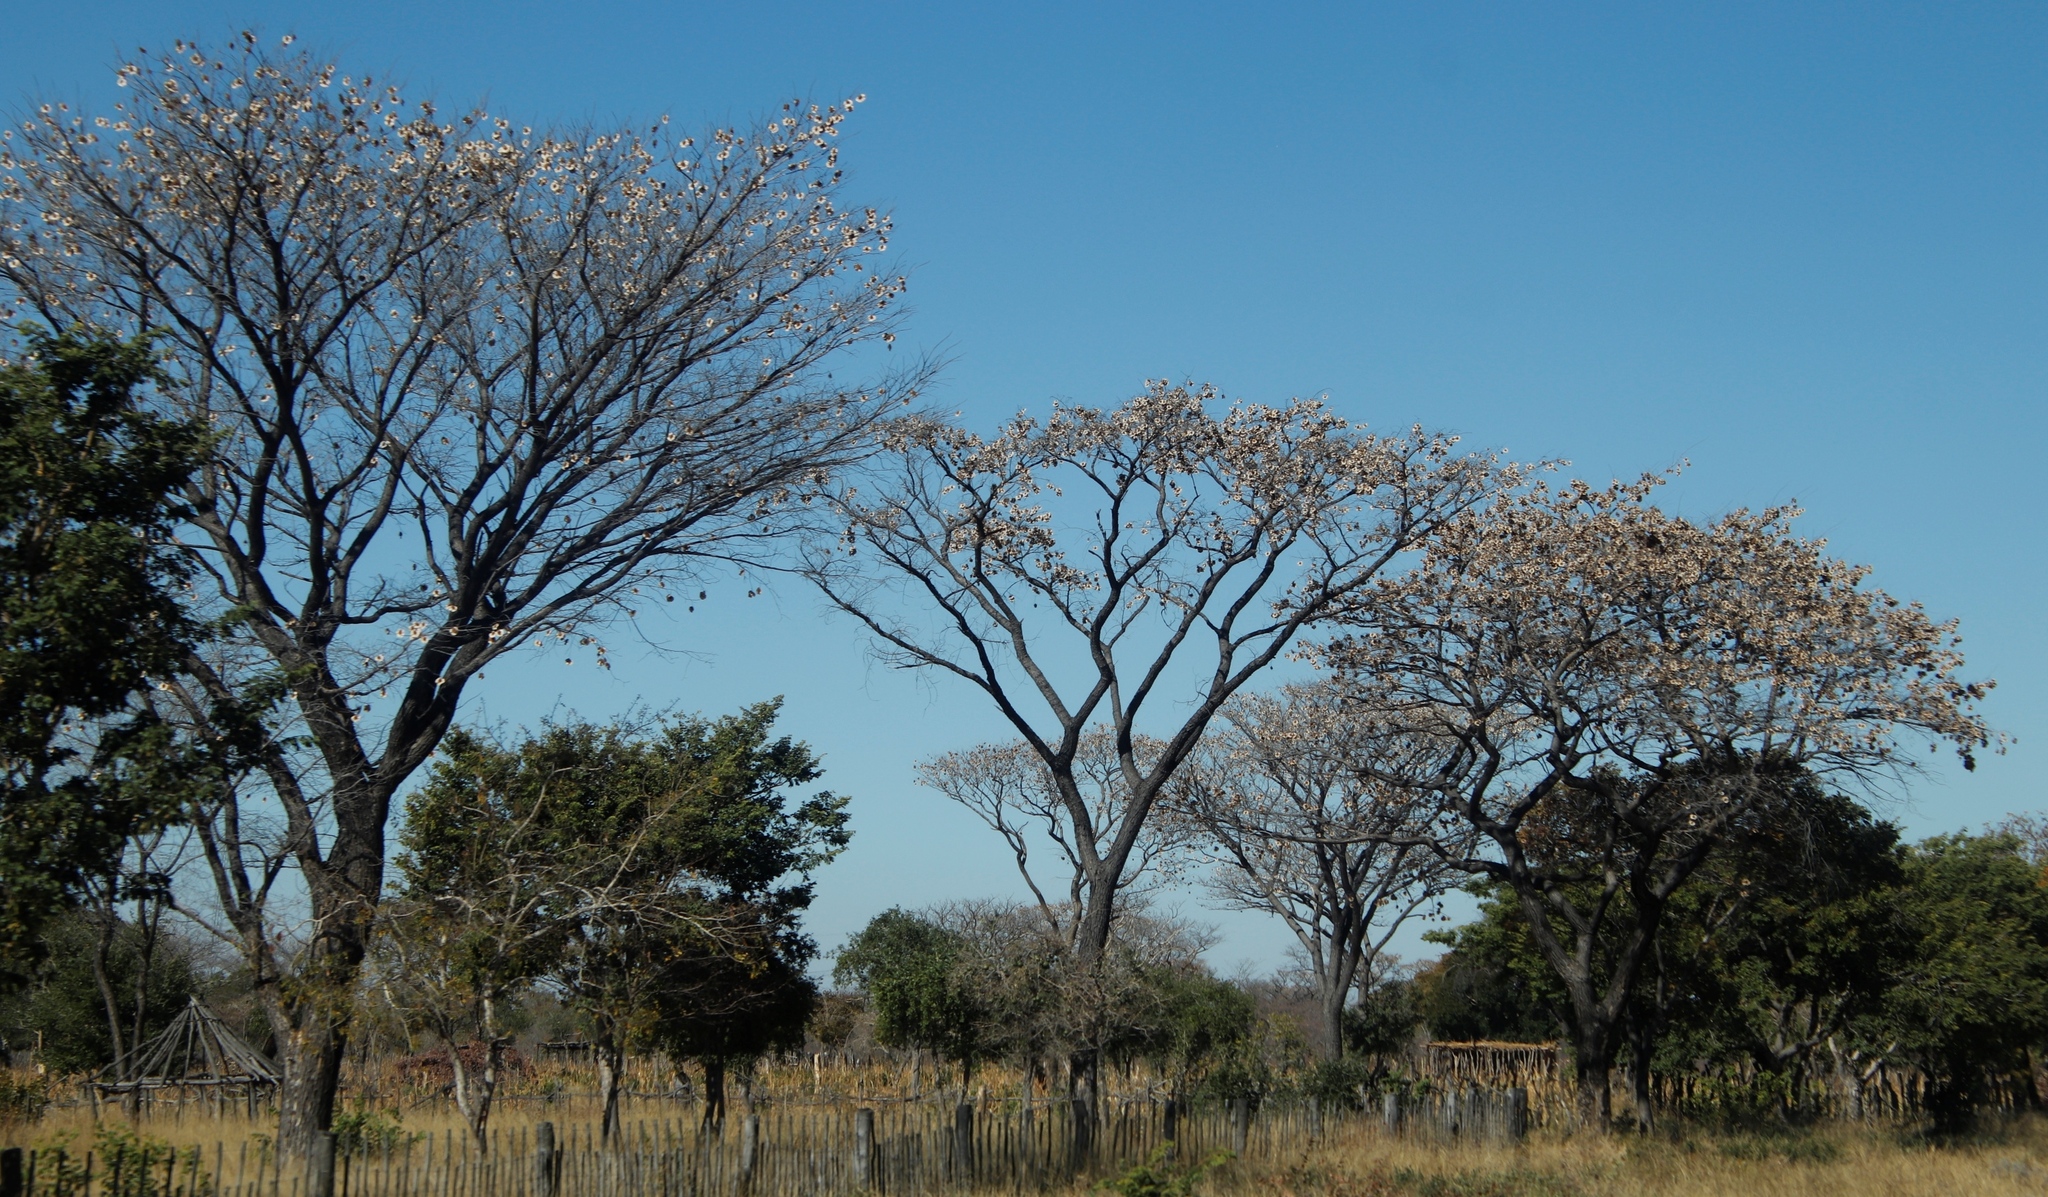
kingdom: Plantae
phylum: Tracheophyta
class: Magnoliopsida
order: Fabales
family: Fabaceae
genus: Pterocarpus
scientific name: Pterocarpus angolensis
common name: Bloodwood tree
